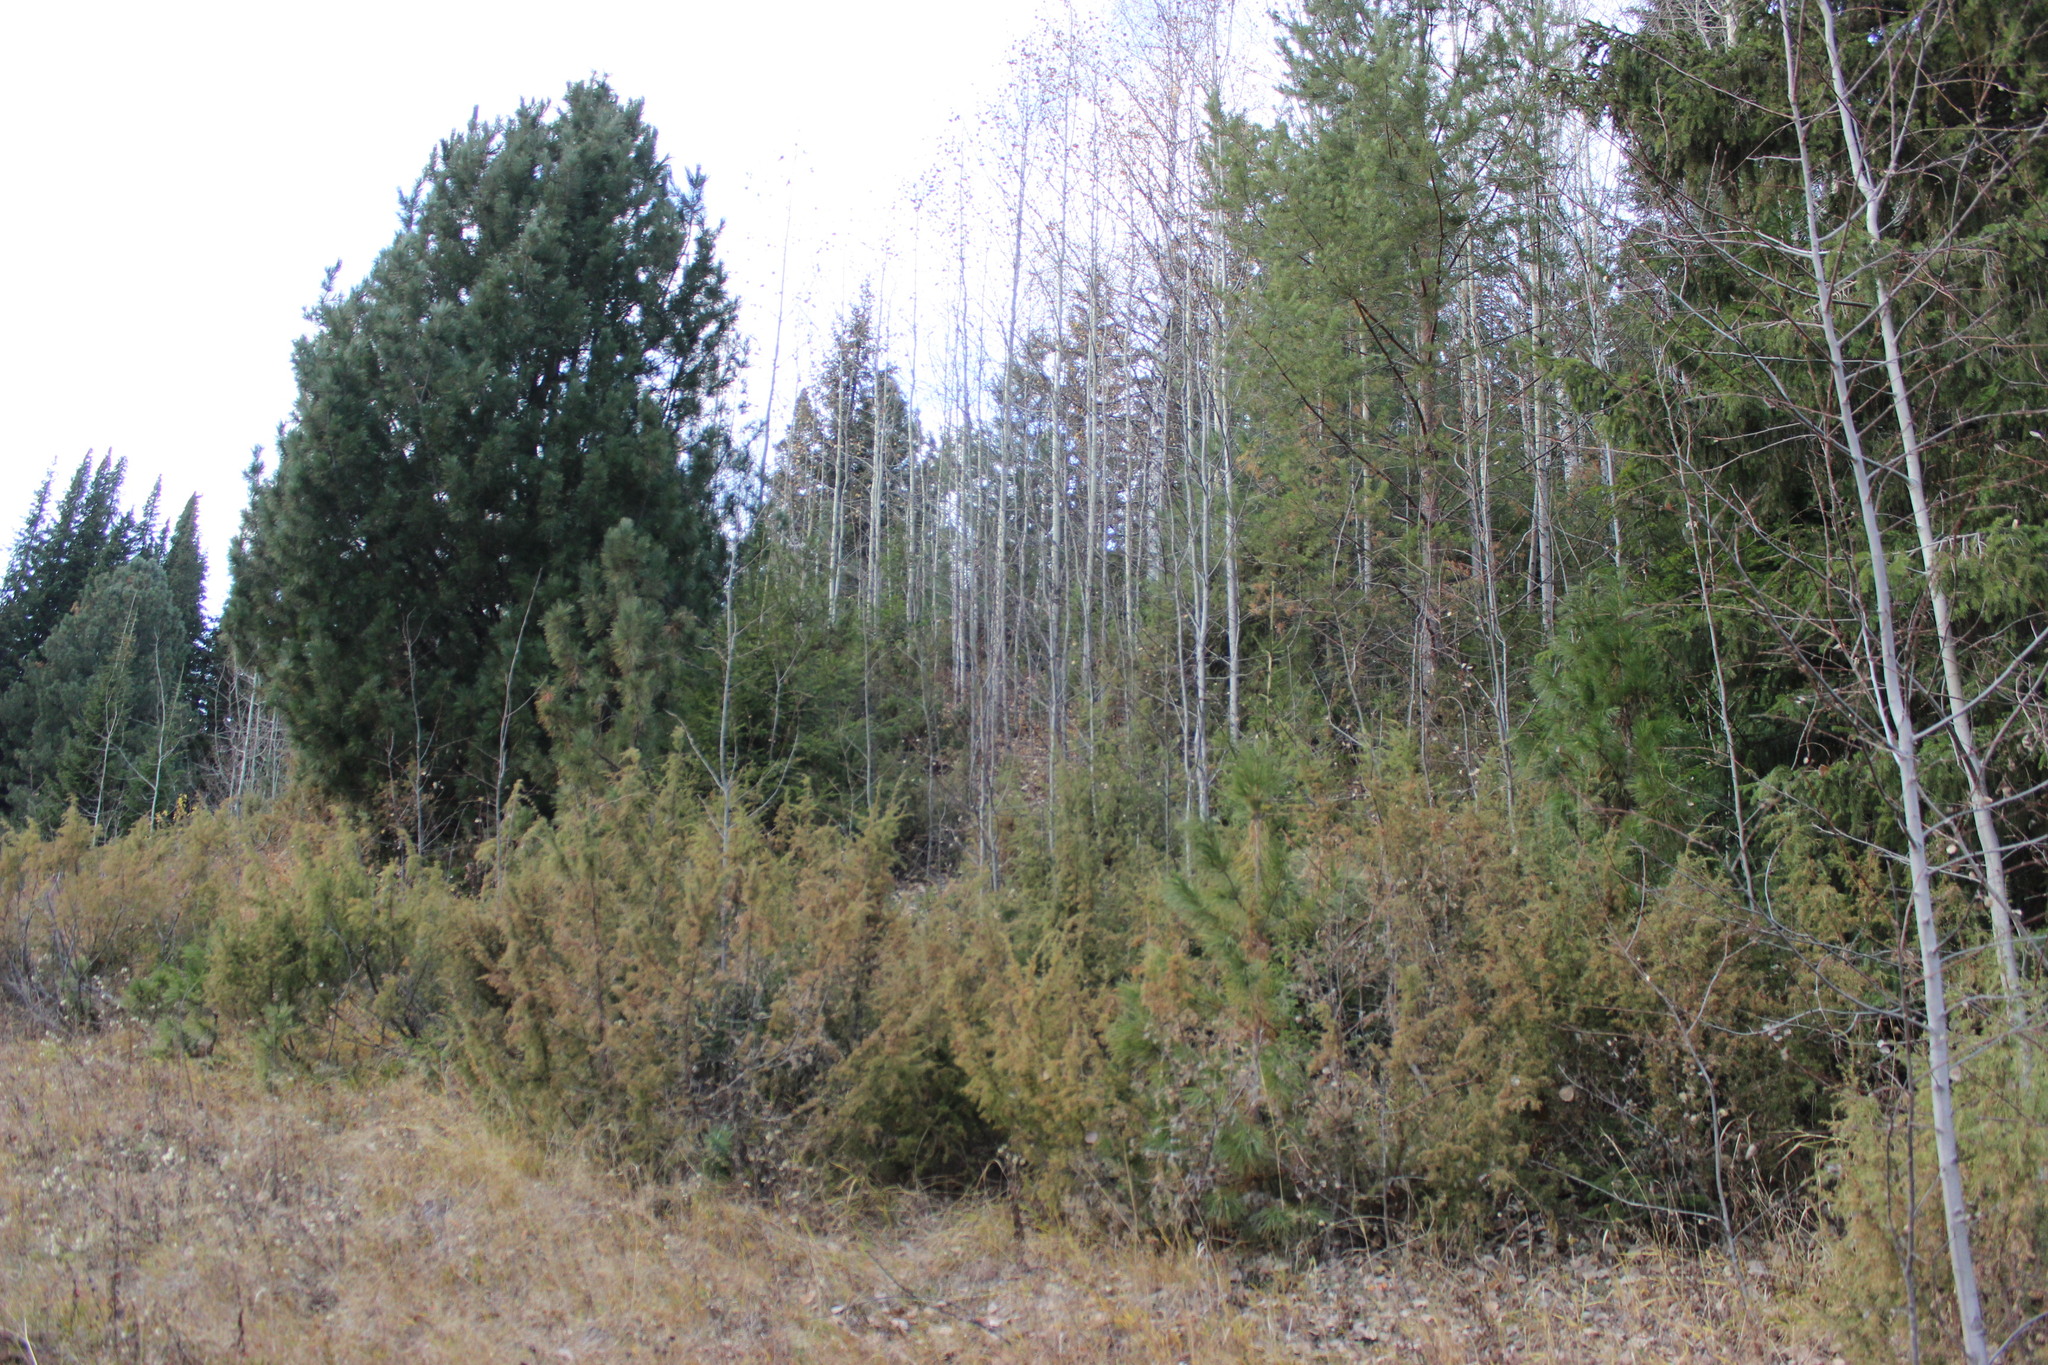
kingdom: Plantae
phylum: Tracheophyta
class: Pinopsida
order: Pinales
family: Cupressaceae
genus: Juniperus
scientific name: Juniperus communis
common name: Common juniper
